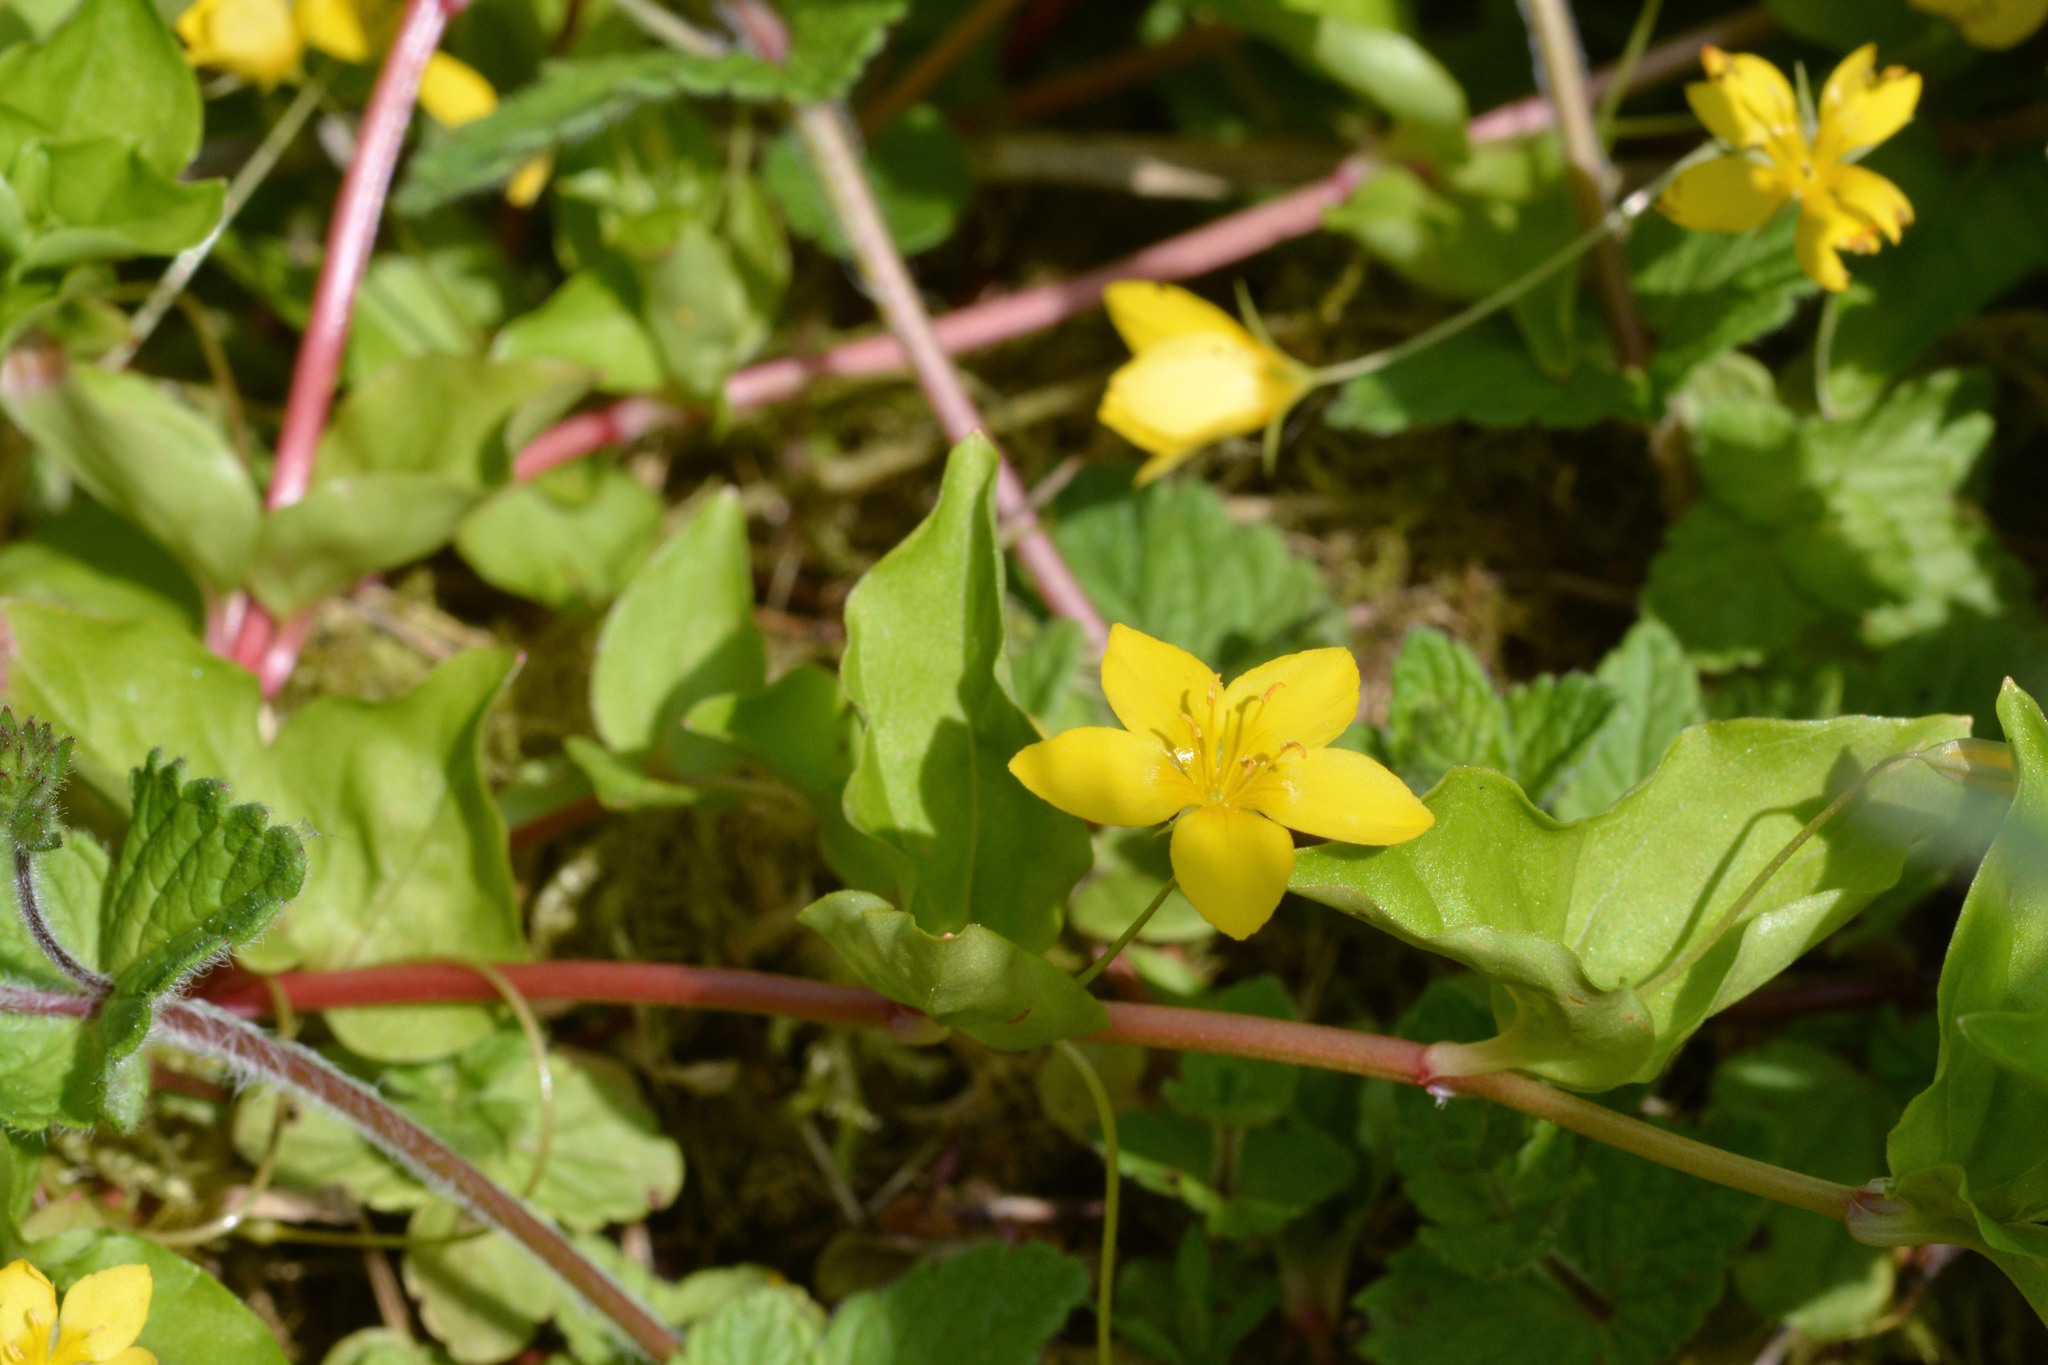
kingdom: Plantae
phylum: Tracheophyta
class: Magnoliopsida
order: Ericales
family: Primulaceae
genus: Lysimachia
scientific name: Lysimachia nemorum
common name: Yellow pimpernel
